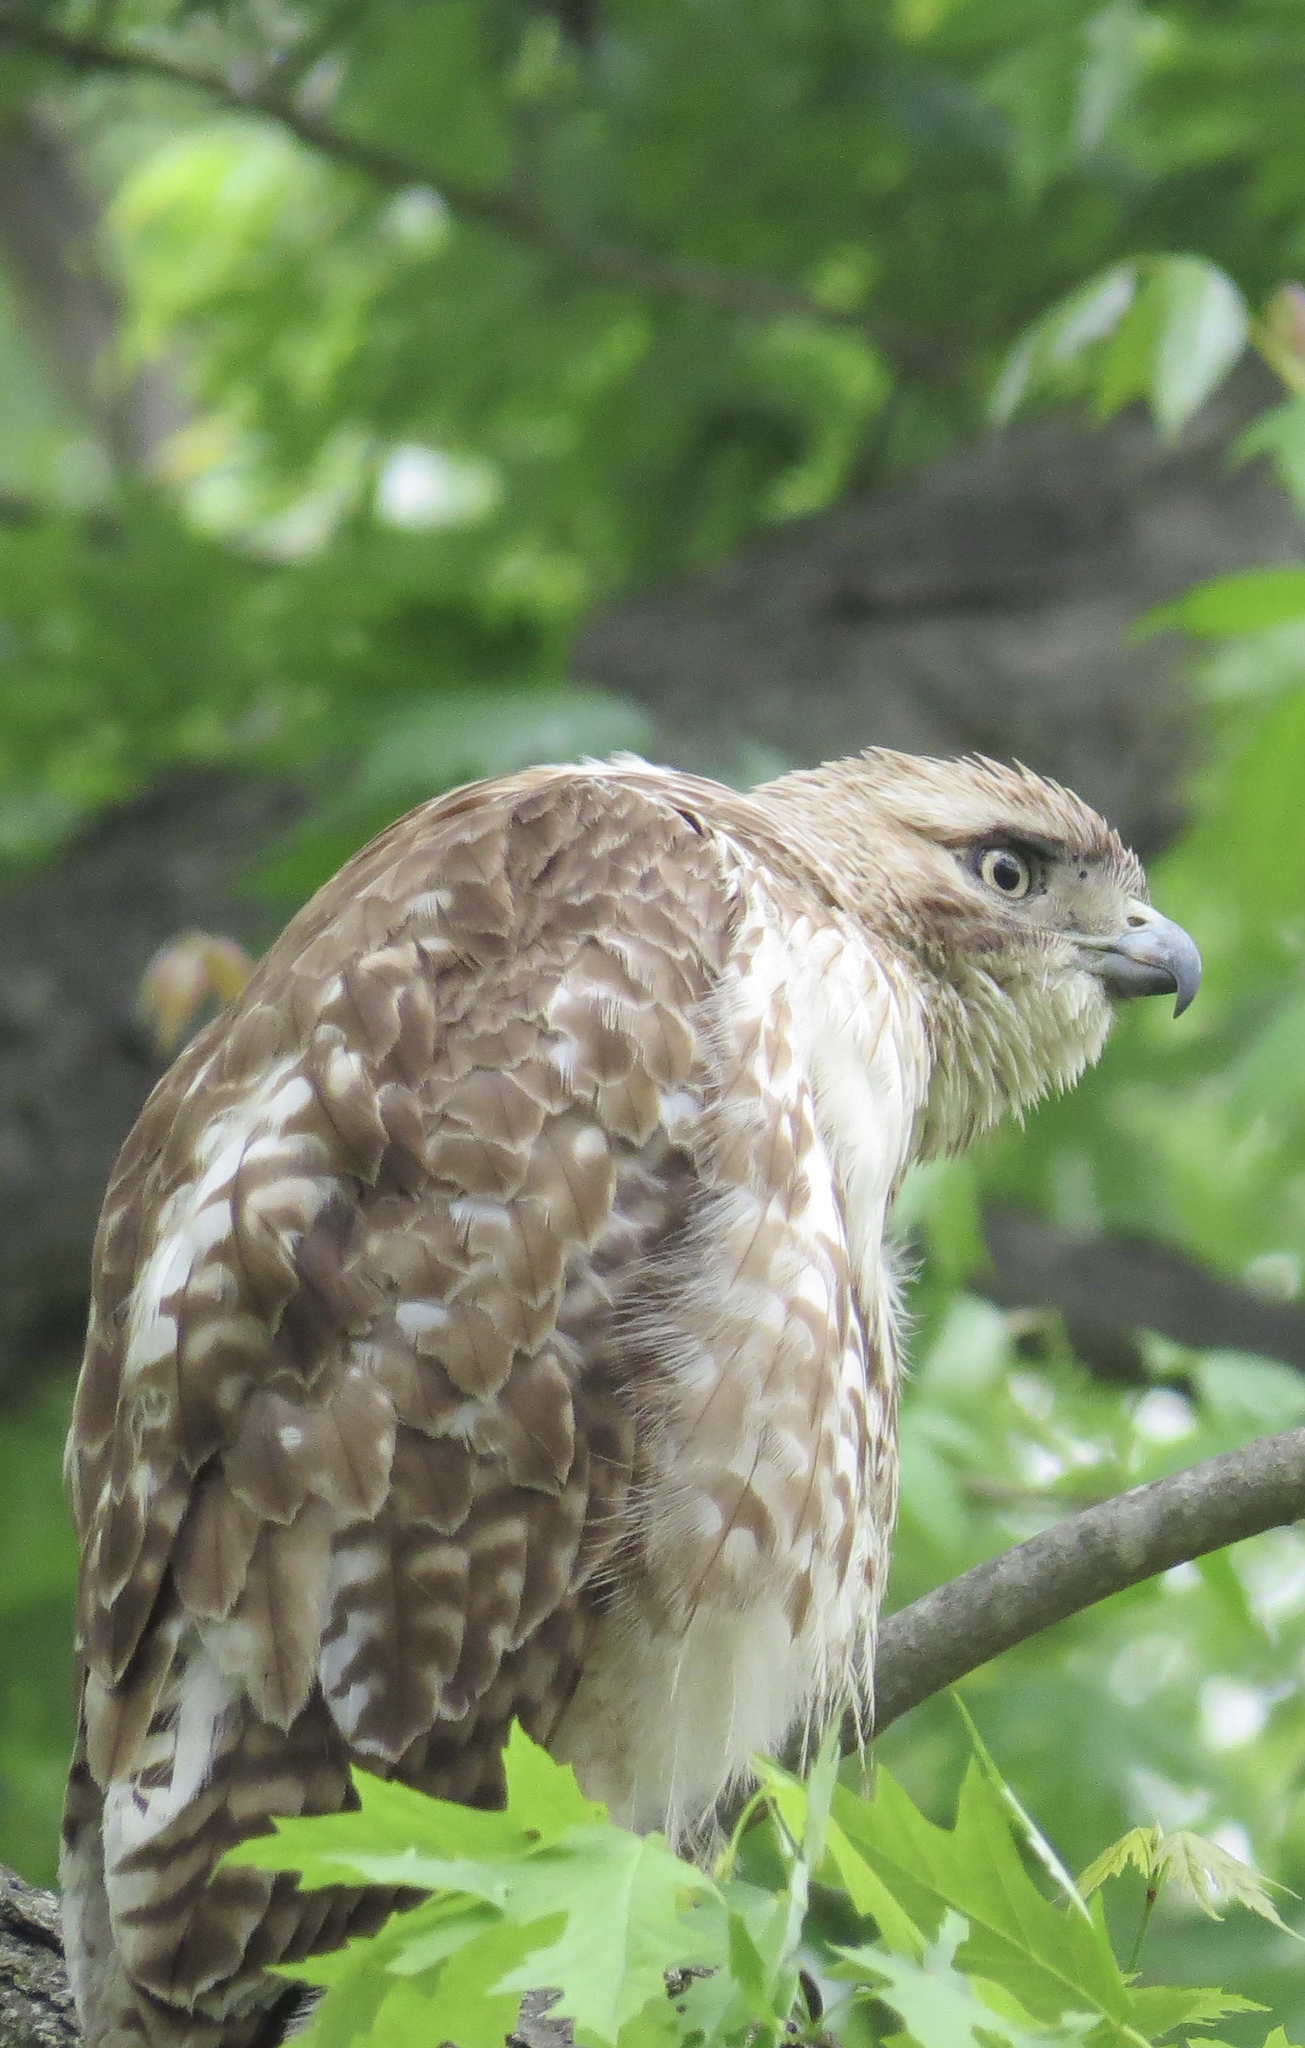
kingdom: Animalia
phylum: Chordata
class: Aves
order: Accipitriformes
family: Accipitridae
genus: Buteo
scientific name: Buteo jamaicensis
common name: Red-tailed hawk
